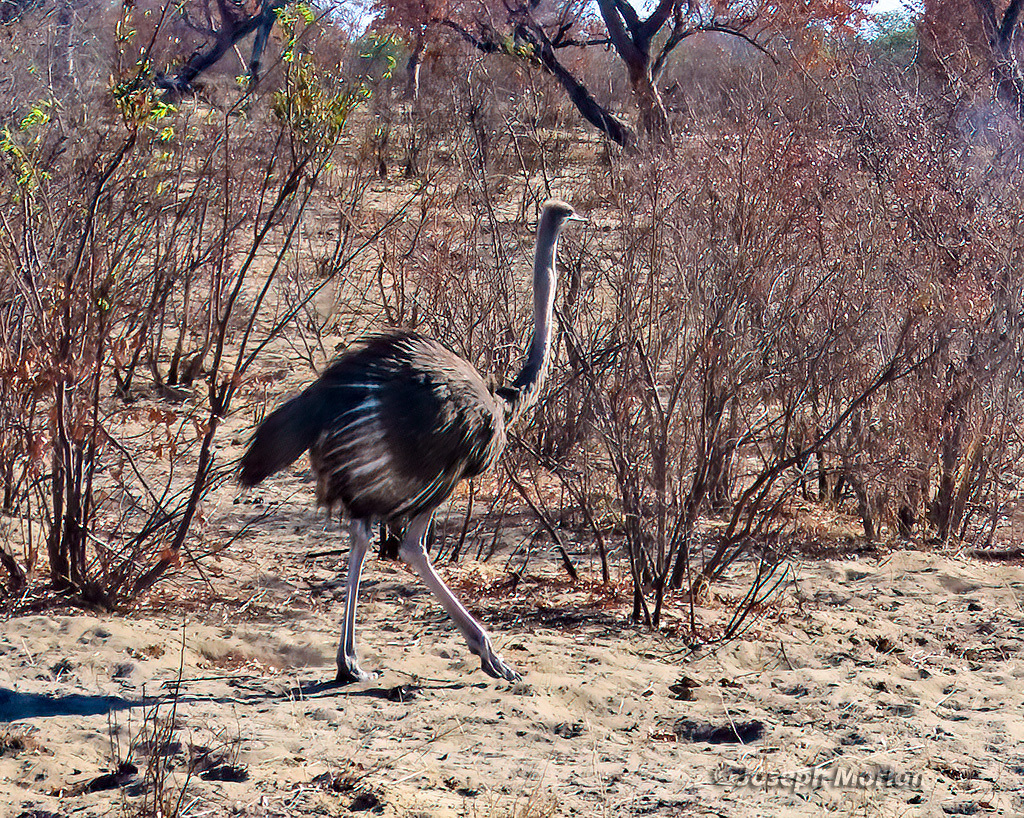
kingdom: Animalia
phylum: Chordata
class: Aves
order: Struthioniformes
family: Struthionidae
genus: Struthio
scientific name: Struthio camelus
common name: Common ostrich
